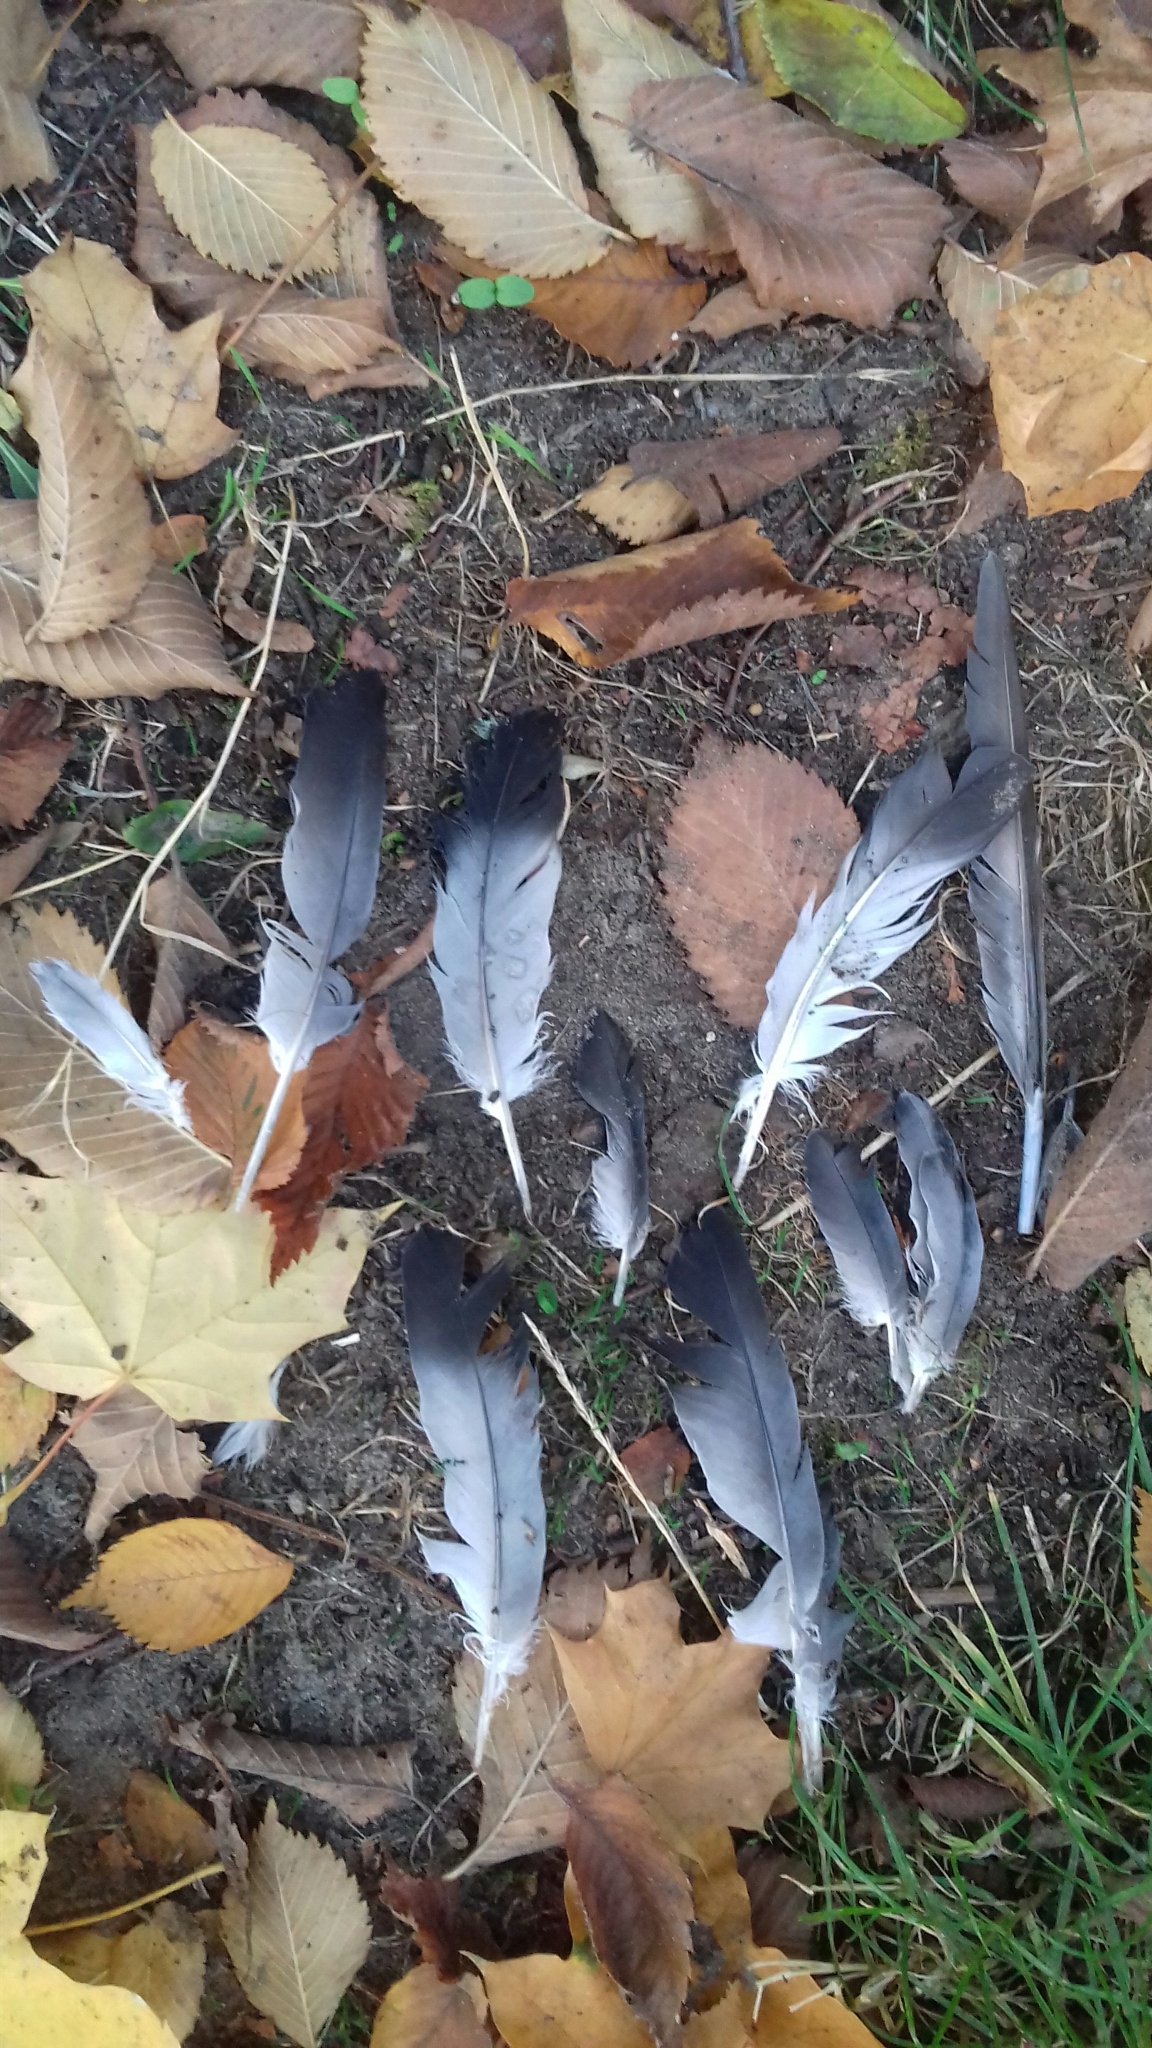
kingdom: Animalia
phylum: Chordata
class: Aves
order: Columbiformes
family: Columbidae
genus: Columba
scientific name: Columba livia
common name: Rock pigeon
